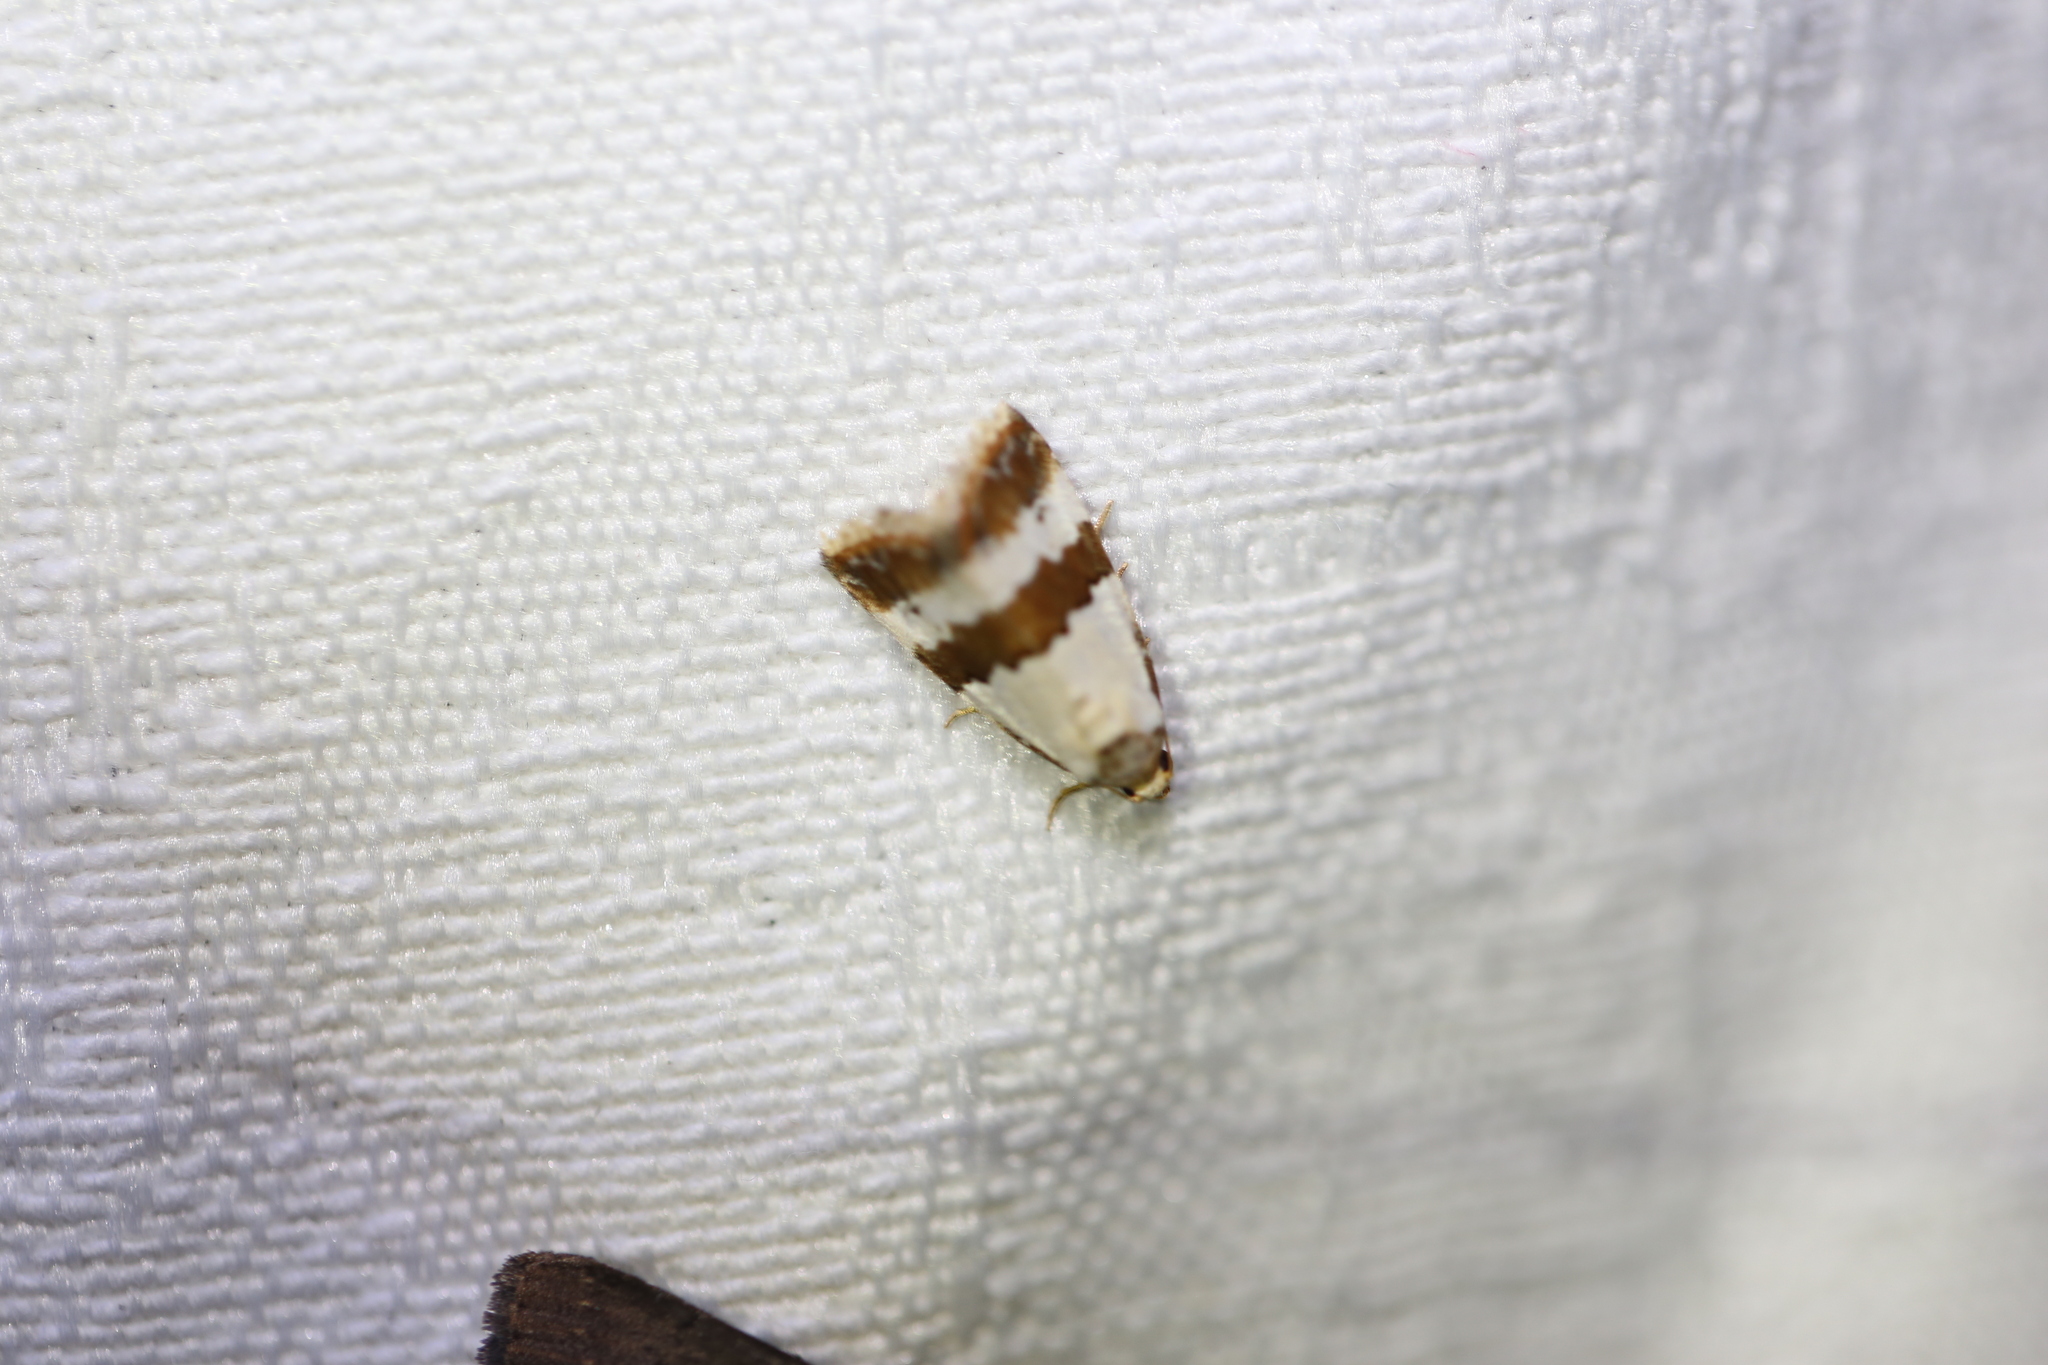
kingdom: Animalia
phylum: Arthropoda
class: Insecta
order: Lepidoptera
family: Noctuidae
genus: Maliattha
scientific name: Maliattha ritsemae
